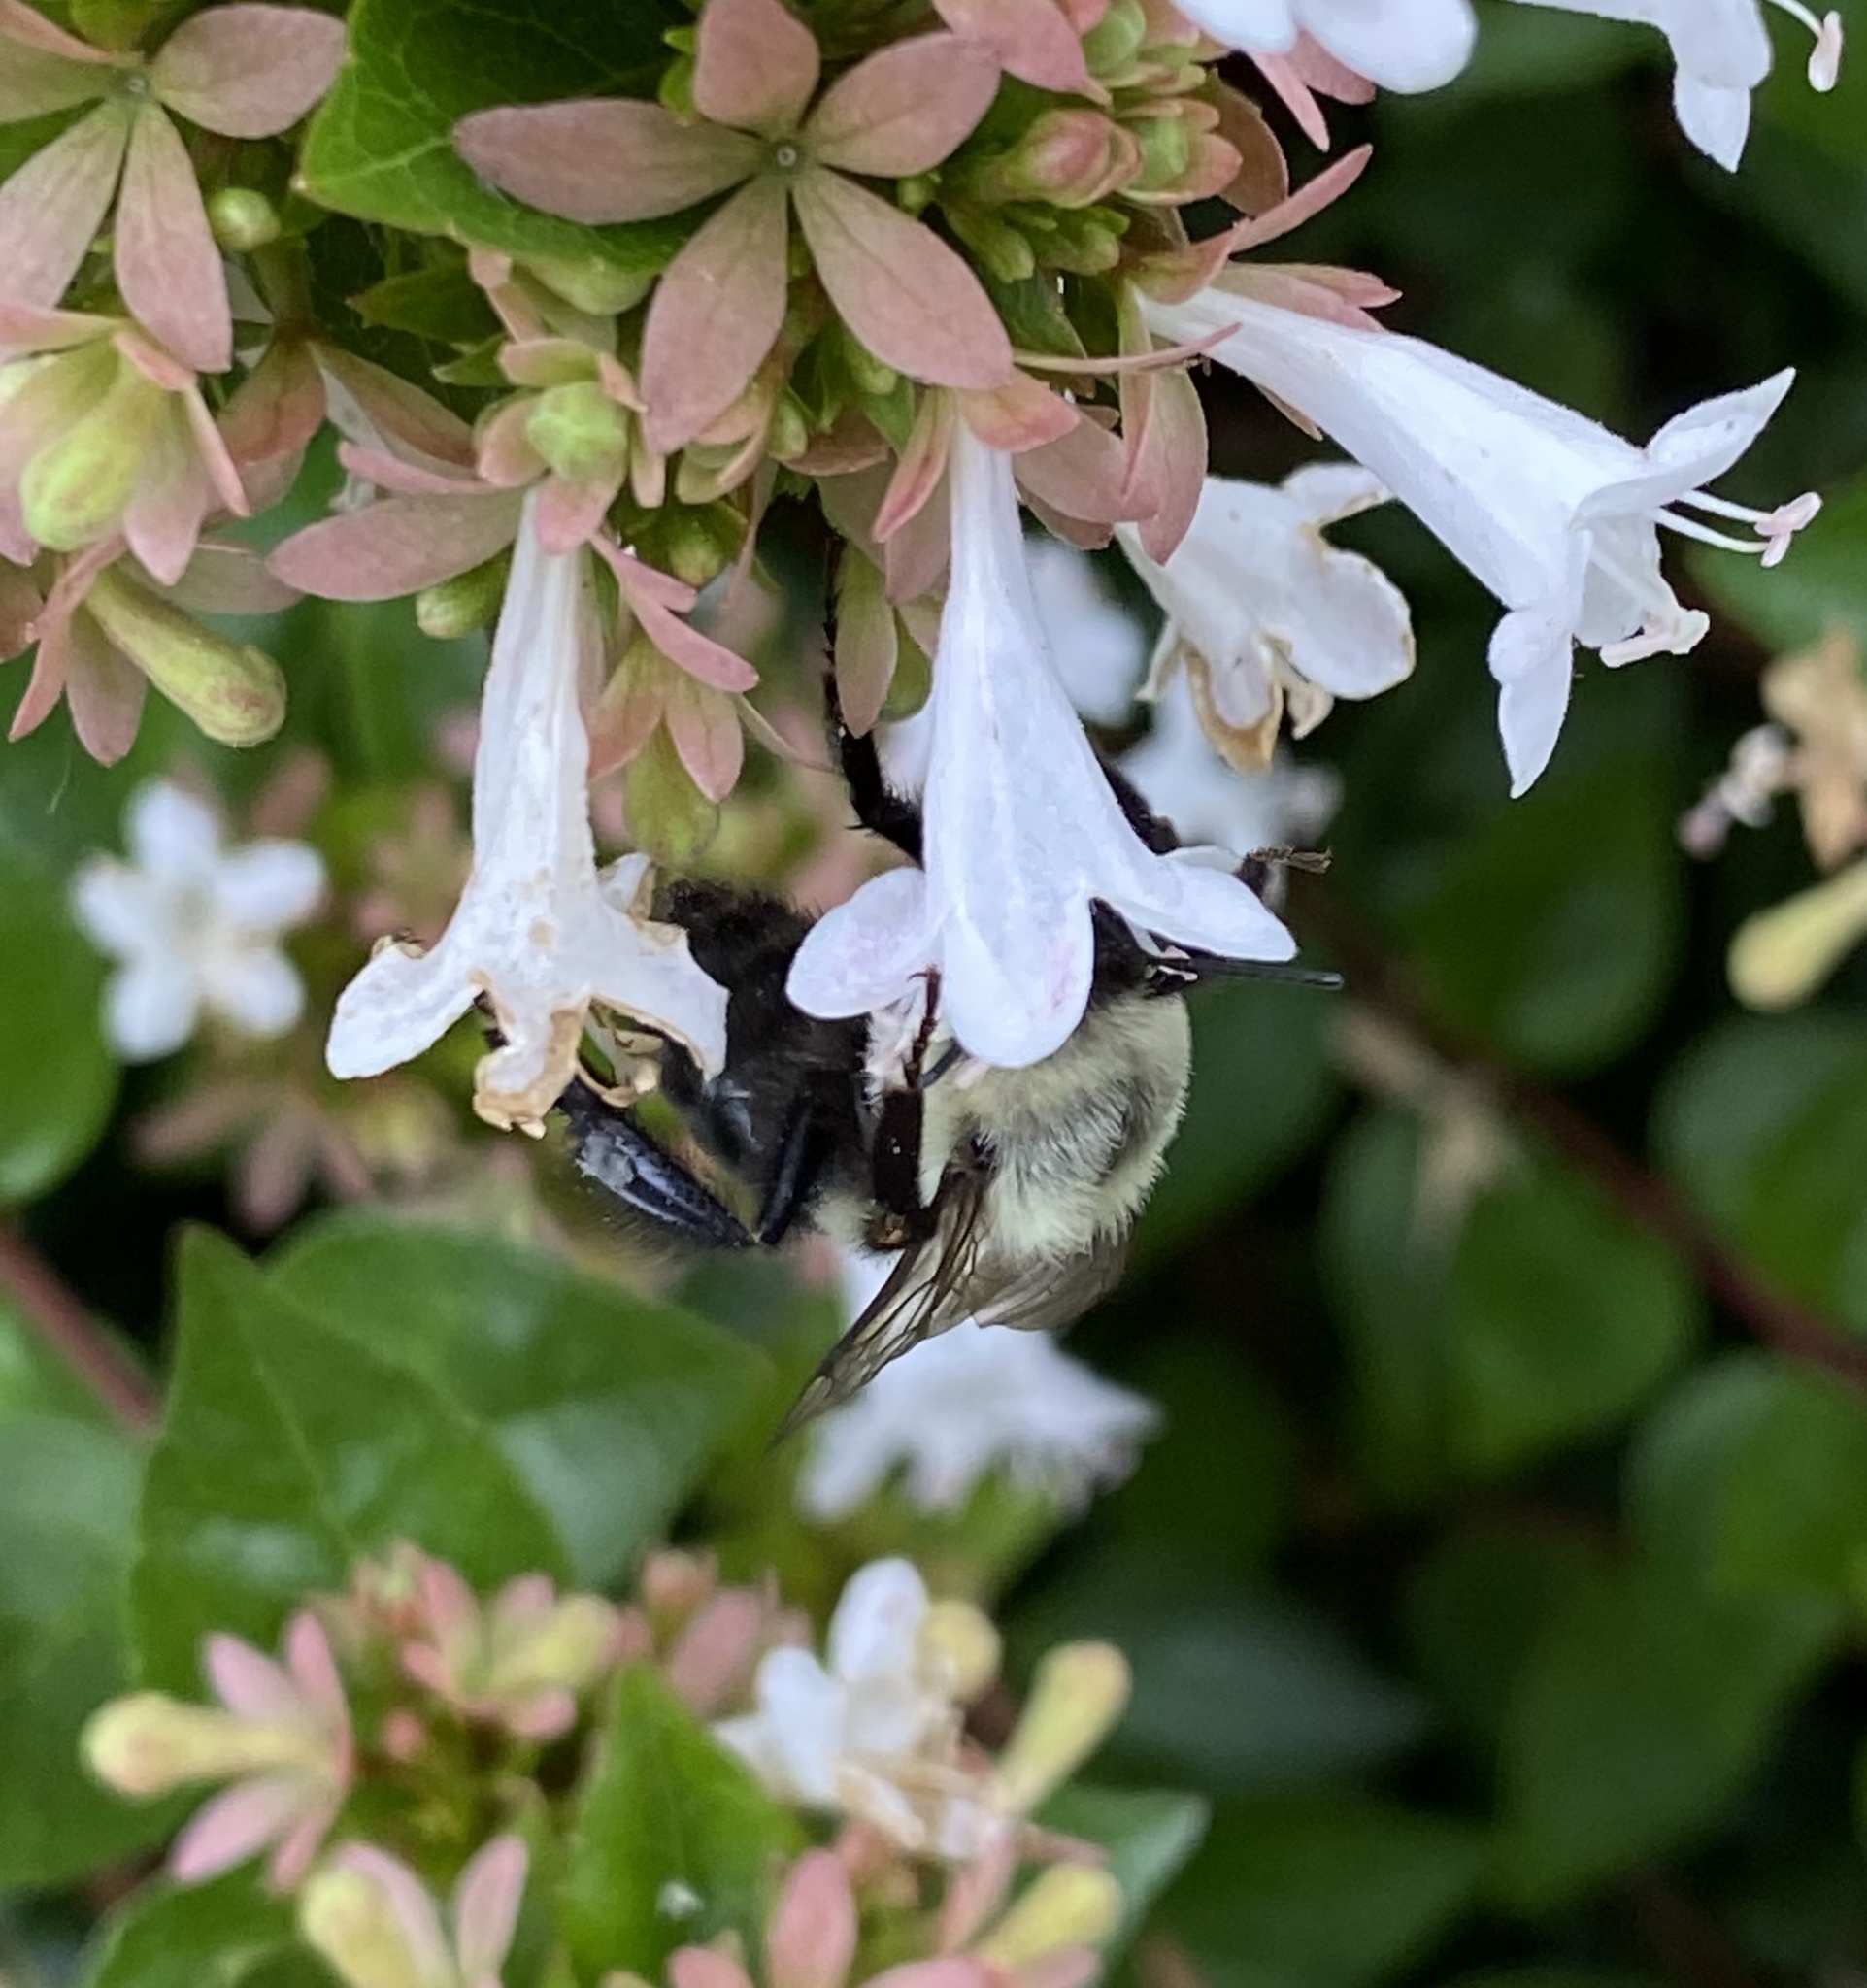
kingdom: Animalia
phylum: Arthropoda
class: Insecta
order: Hymenoptera
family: Apidae
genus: Bombus
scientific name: Bombus impatiens
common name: Common eastern bumble bee
